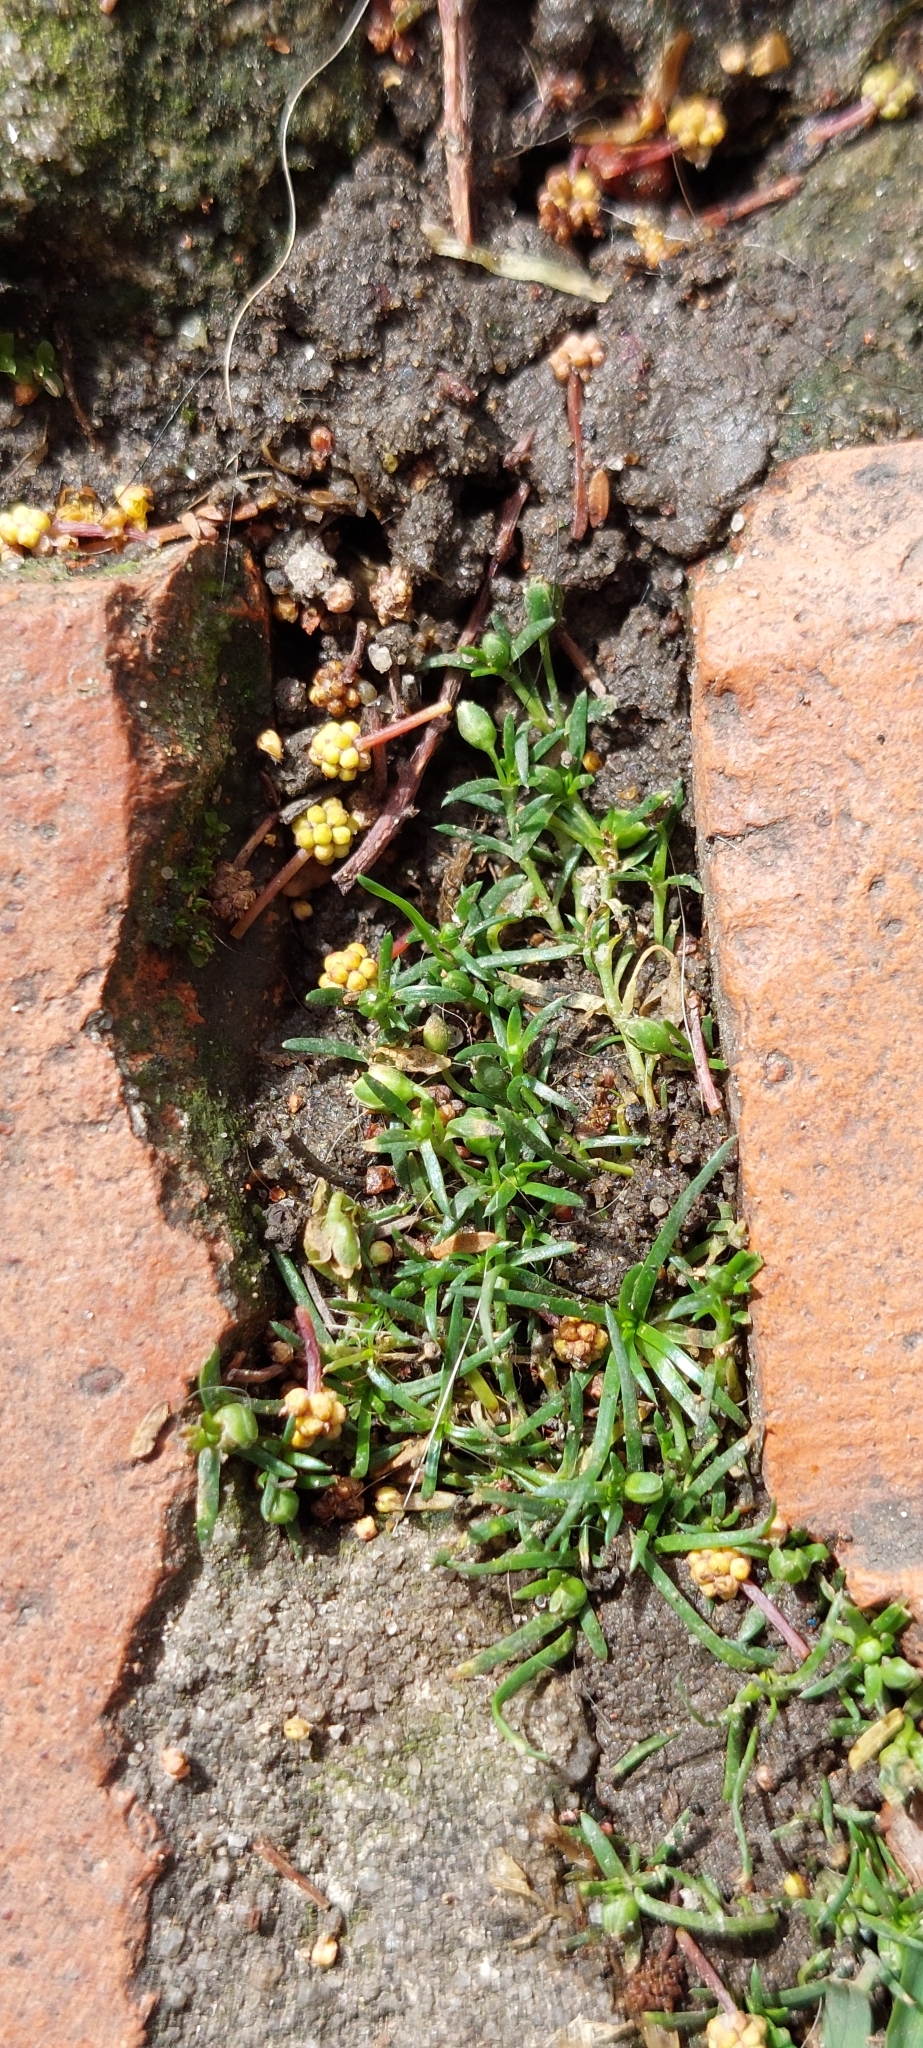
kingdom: Plantae
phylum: Tracheophyta
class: Magnoliopsida
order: Caryophyllales
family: Caryophyllaceae
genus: Sagina
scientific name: Sagina procumbens
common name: Procumbent pearlwort
